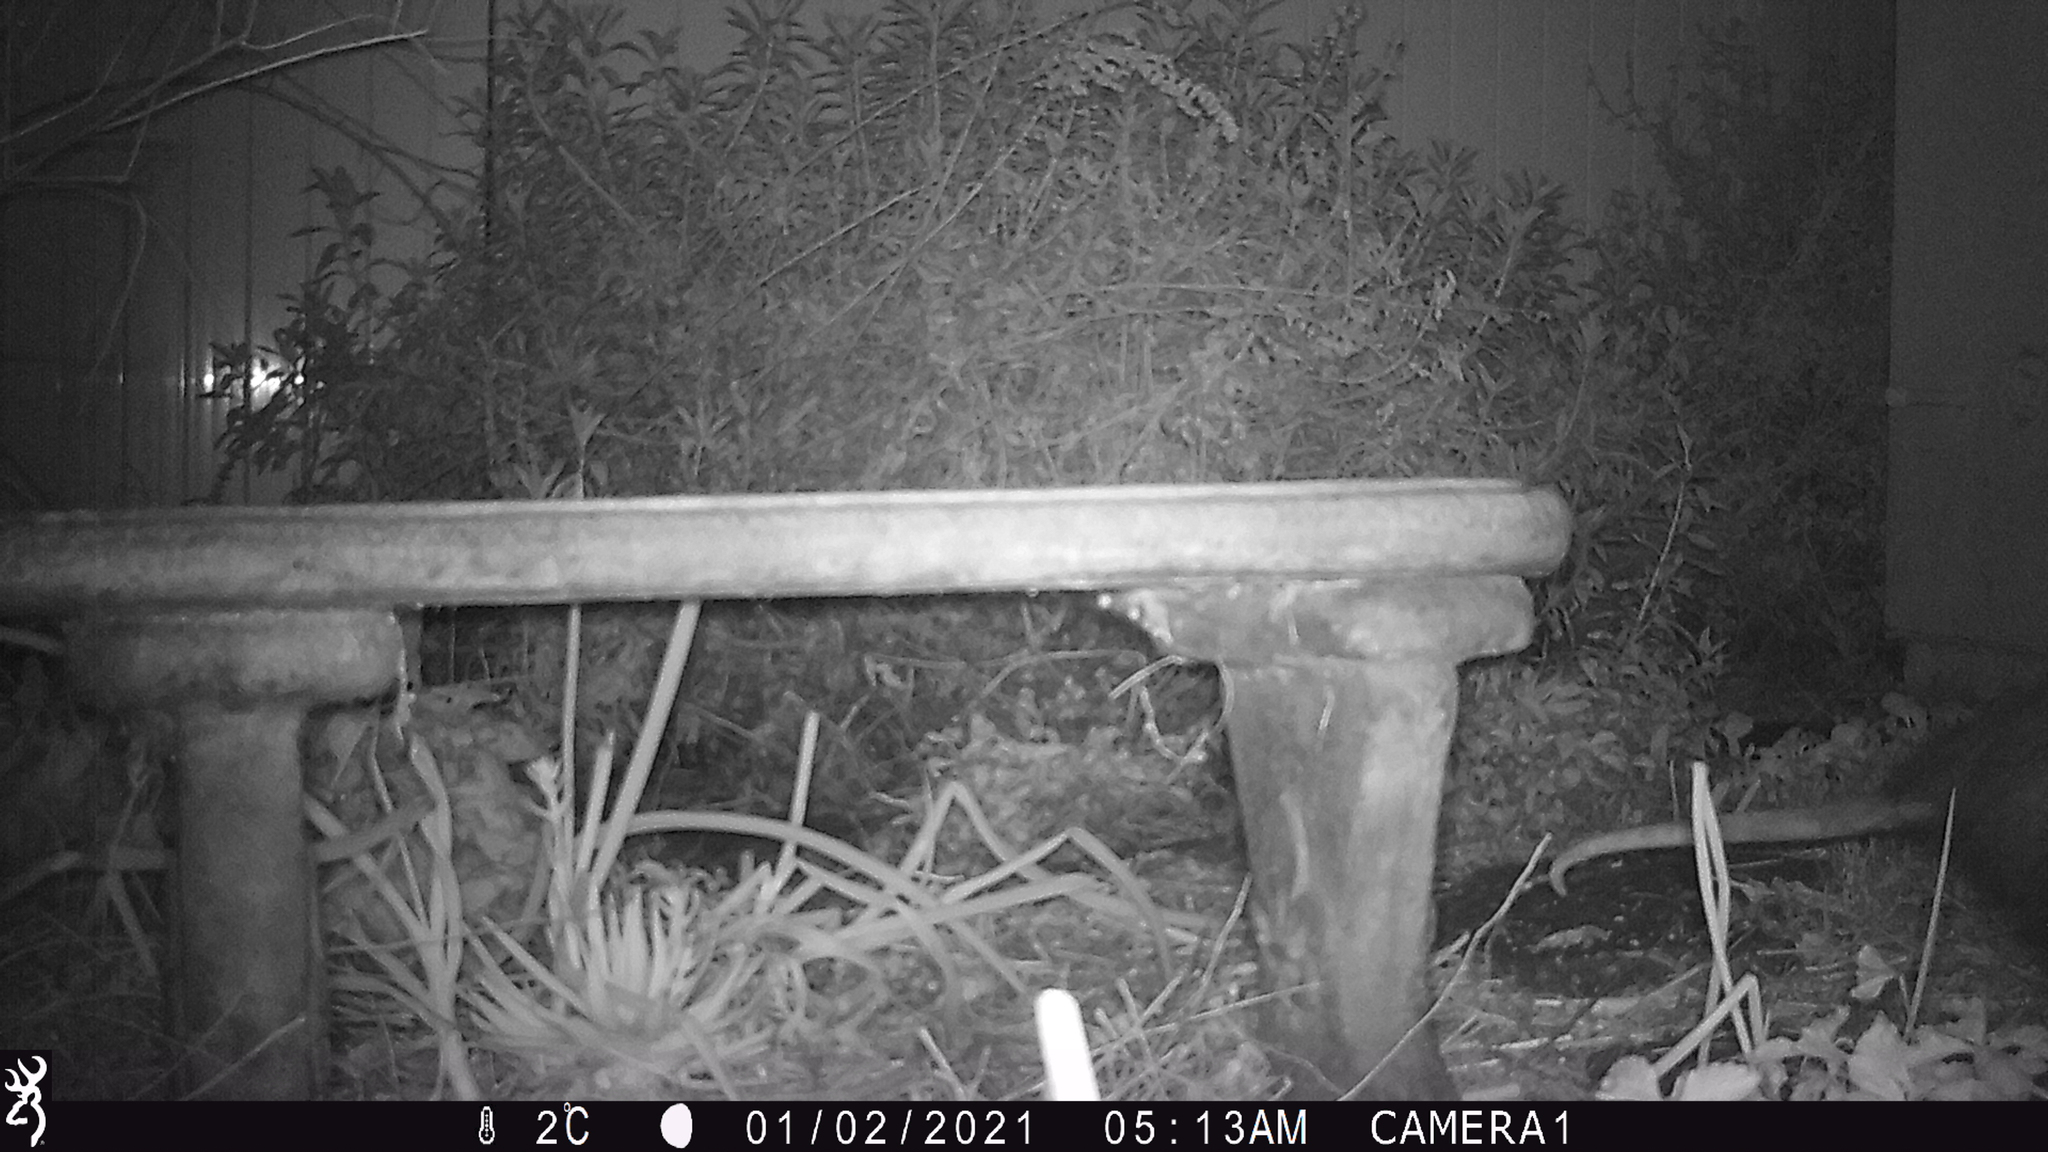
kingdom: Animalia
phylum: Chordata
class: Mammalia
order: Didelphimorphia
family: Didelphidae
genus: Didelphis
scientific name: Didelphis virginiana
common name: Virginia opossum
